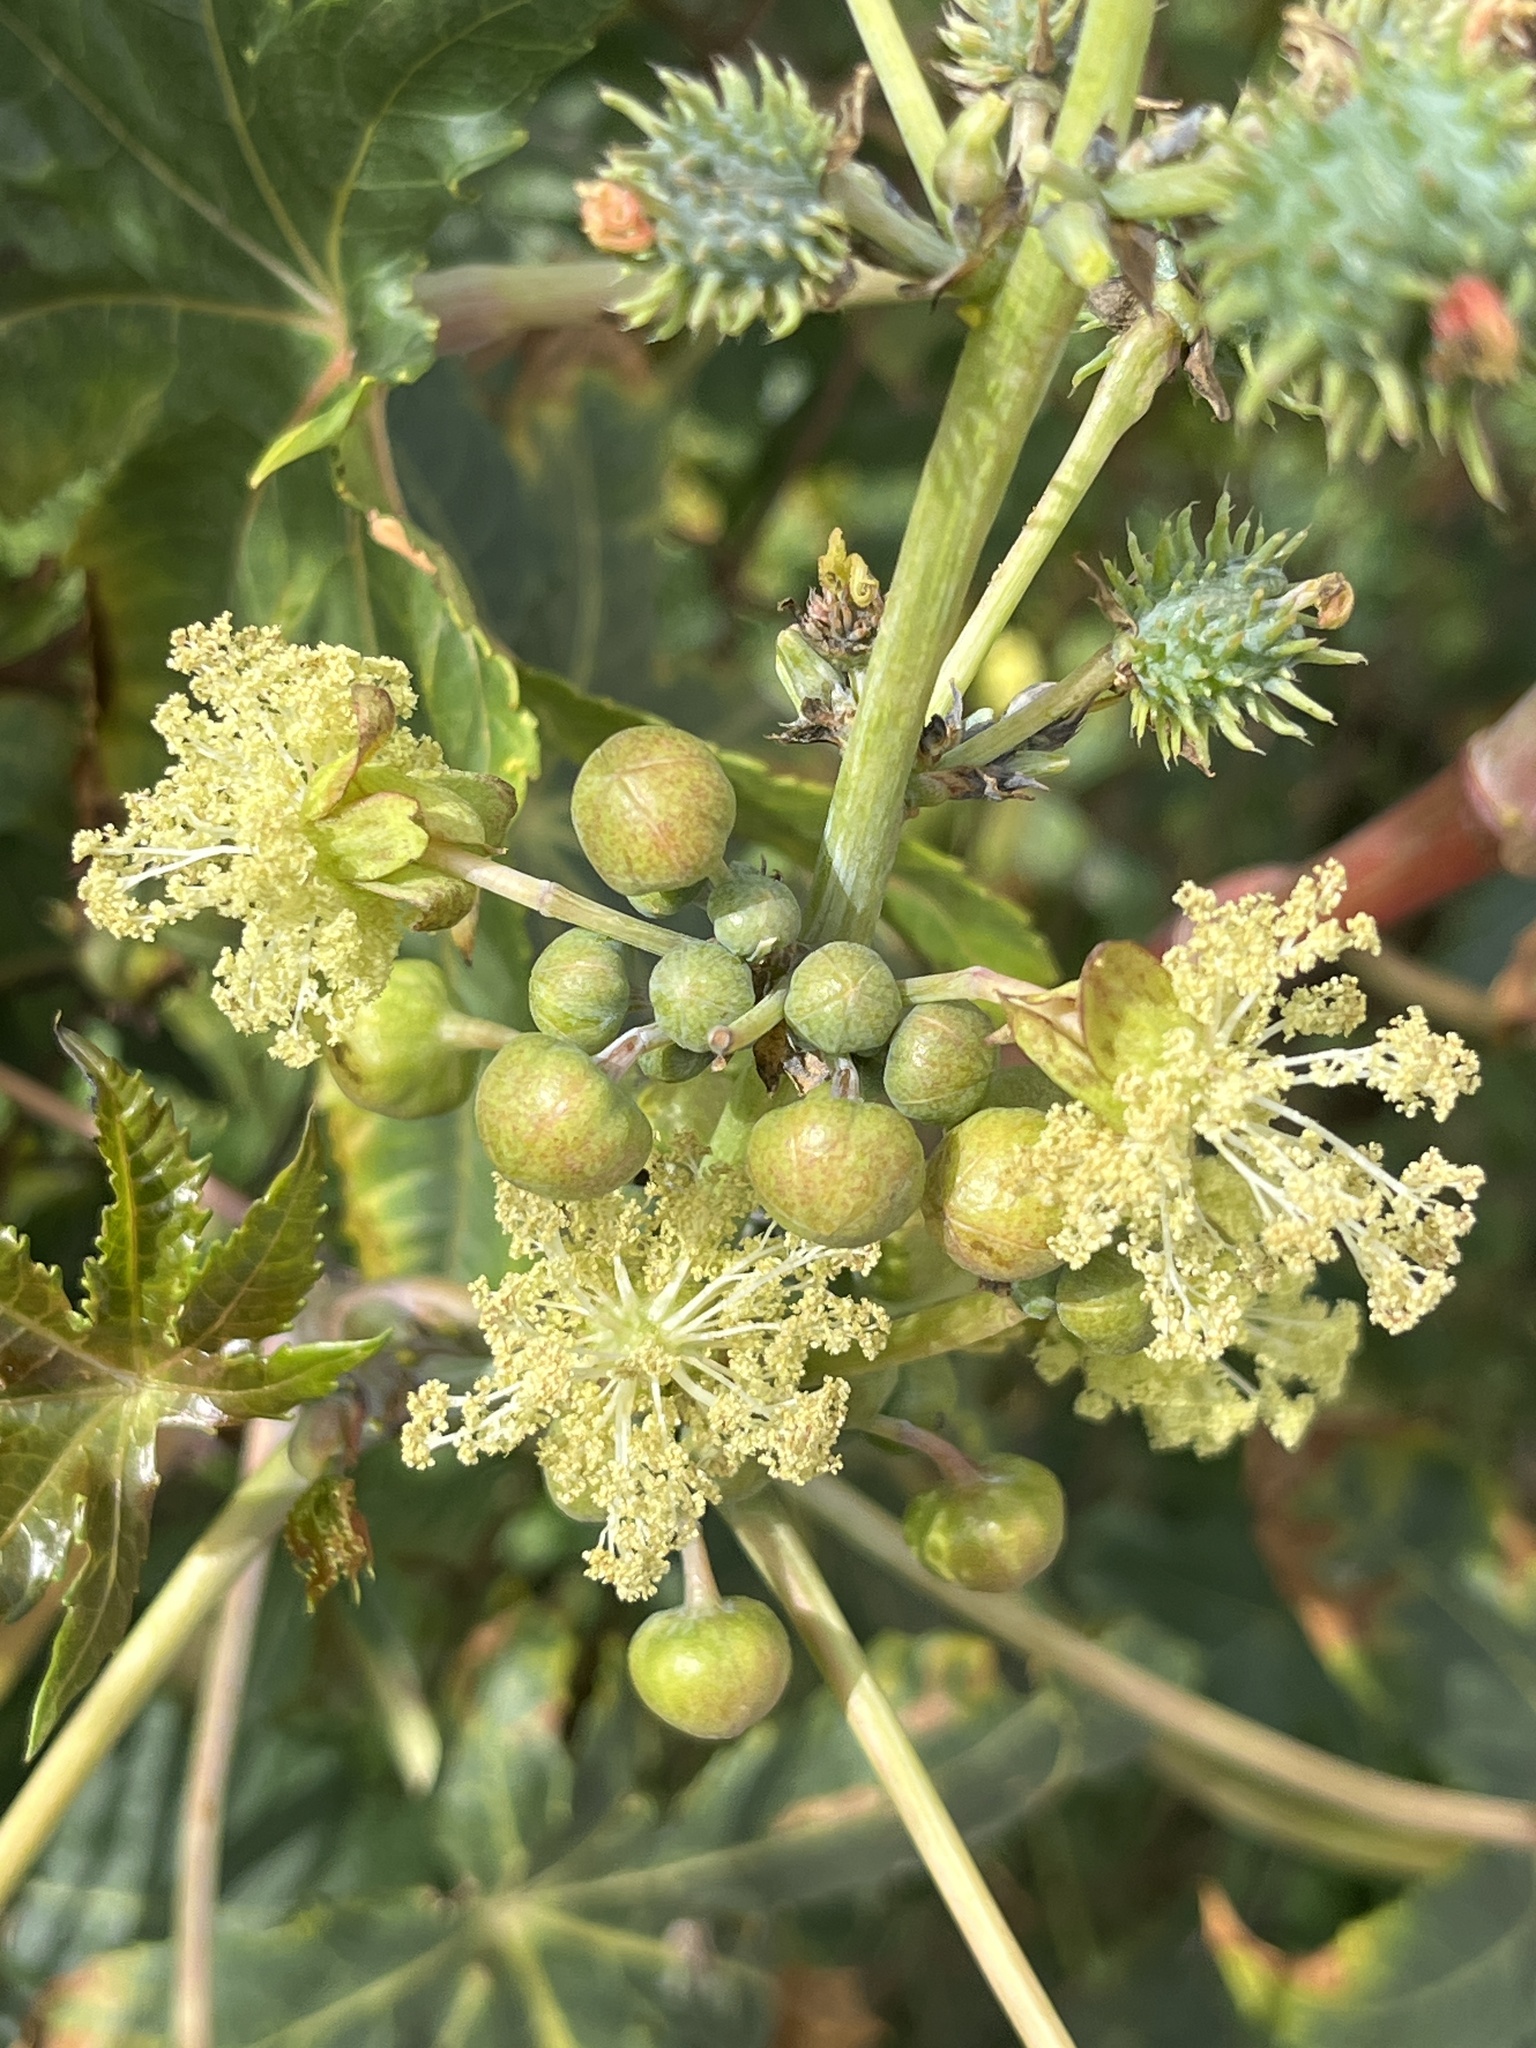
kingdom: Plantae
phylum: Tracheophyta
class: Magnoliopsida
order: Malpighiales
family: Euphorbiaceae
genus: Ricinus
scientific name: Ricinus communis
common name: Castor-oil-plant
